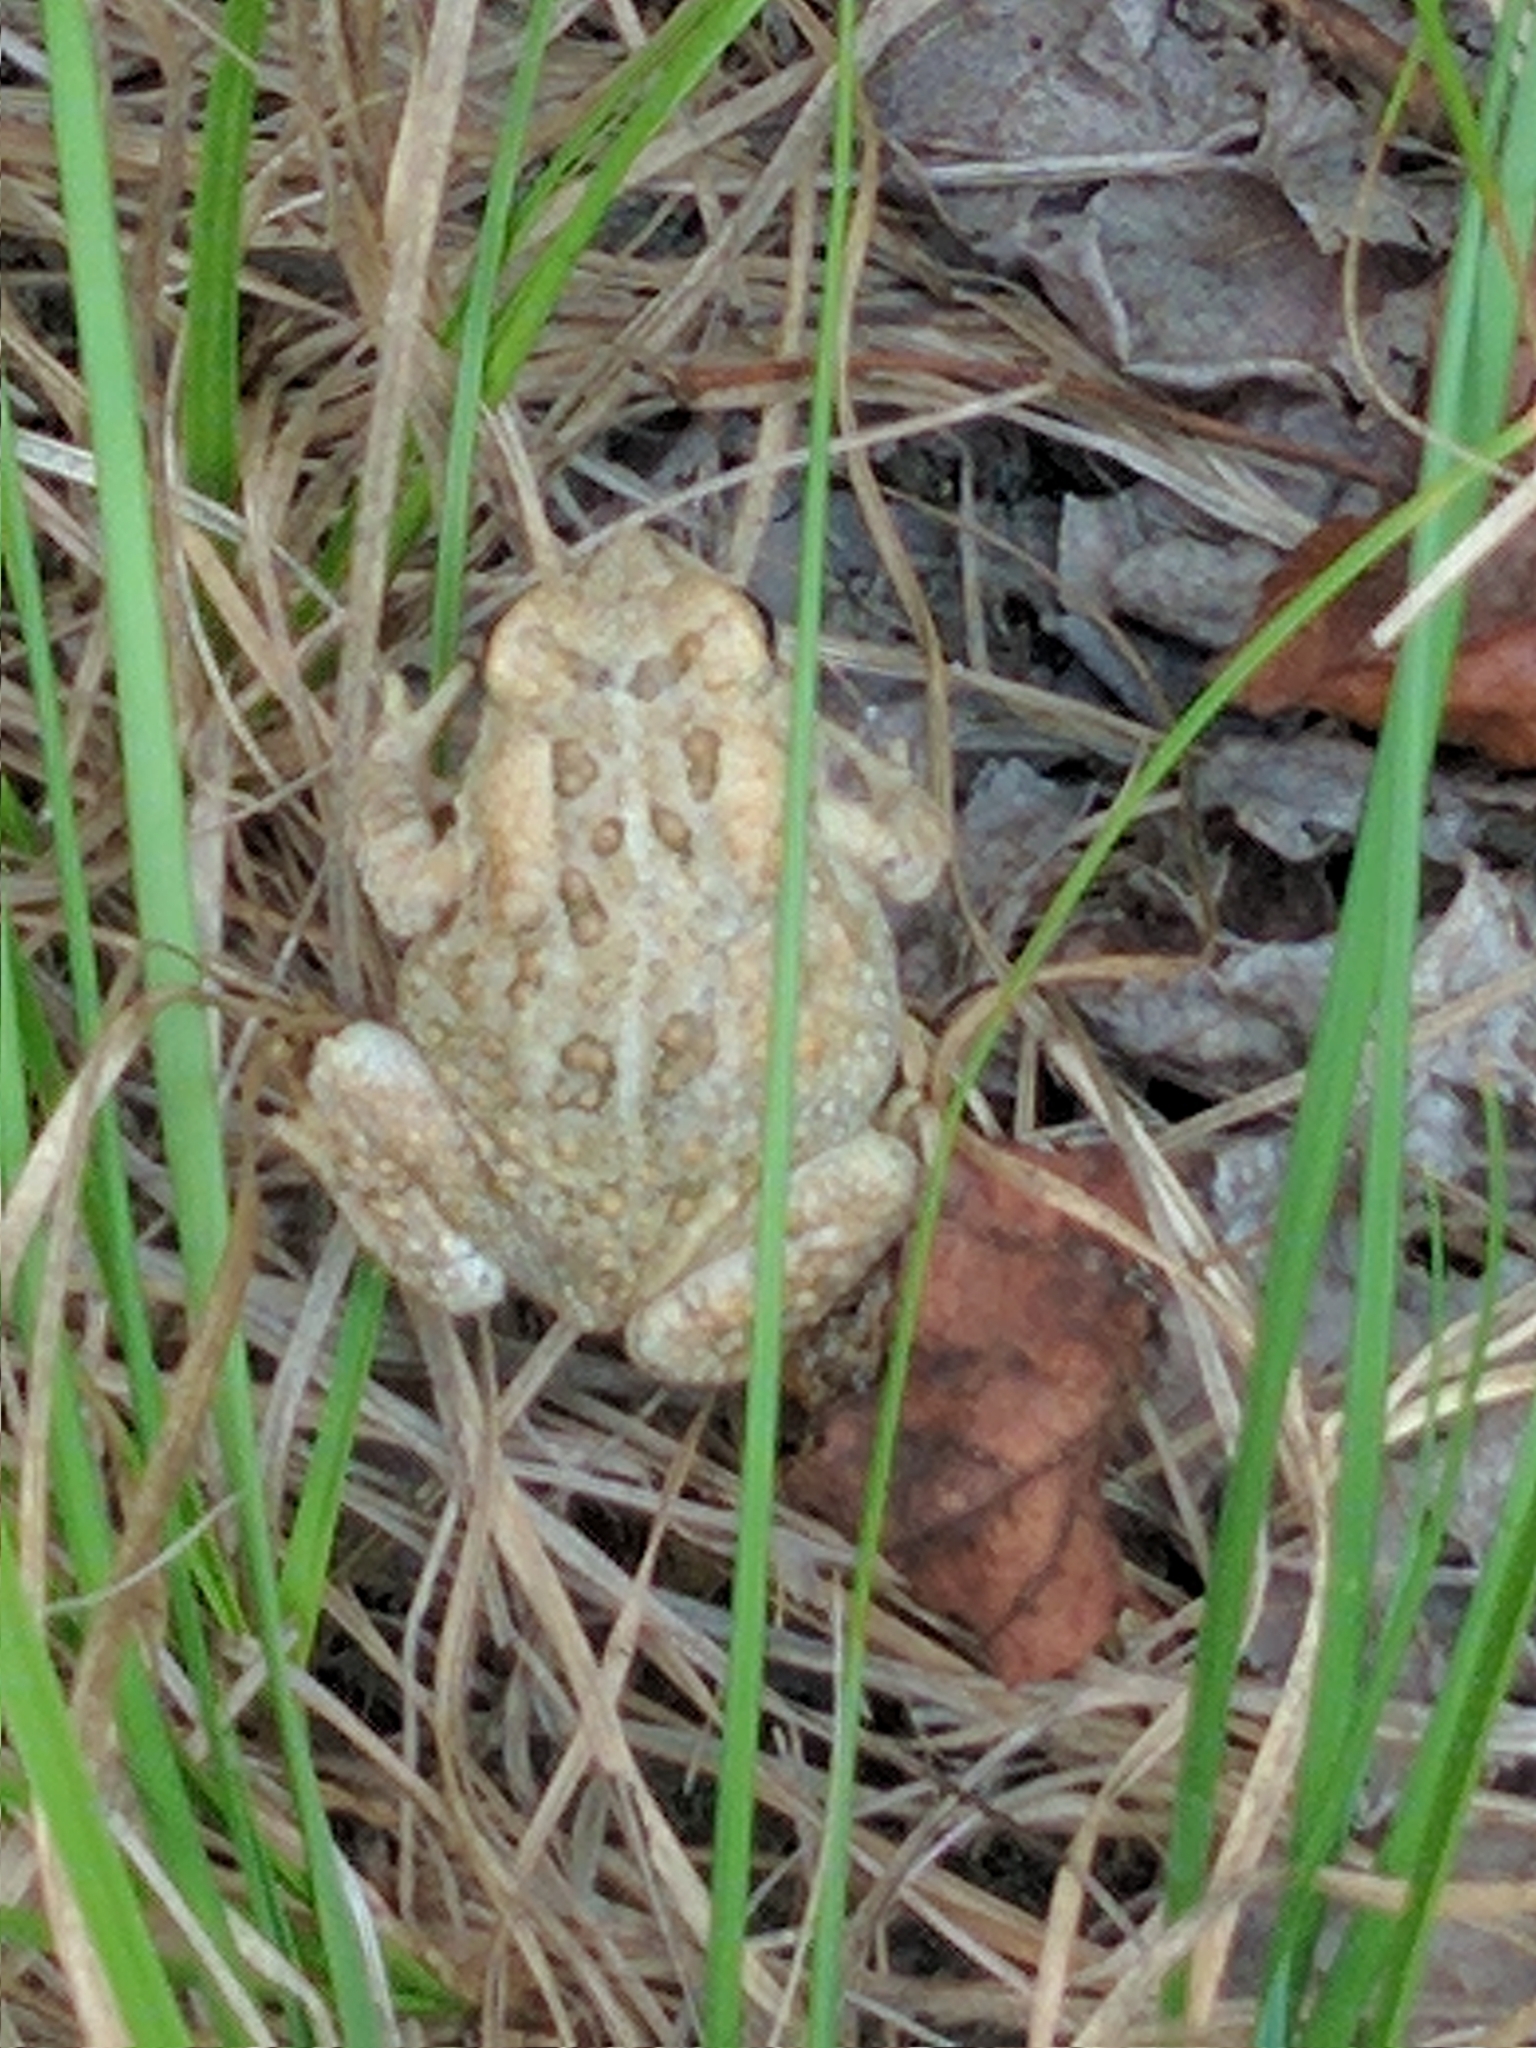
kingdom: Animalia
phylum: Chordata
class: Amphibia
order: Anura
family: Bufonidae
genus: Anaxyrus
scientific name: Anaxyrus fowleri
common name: Fowler's toad
